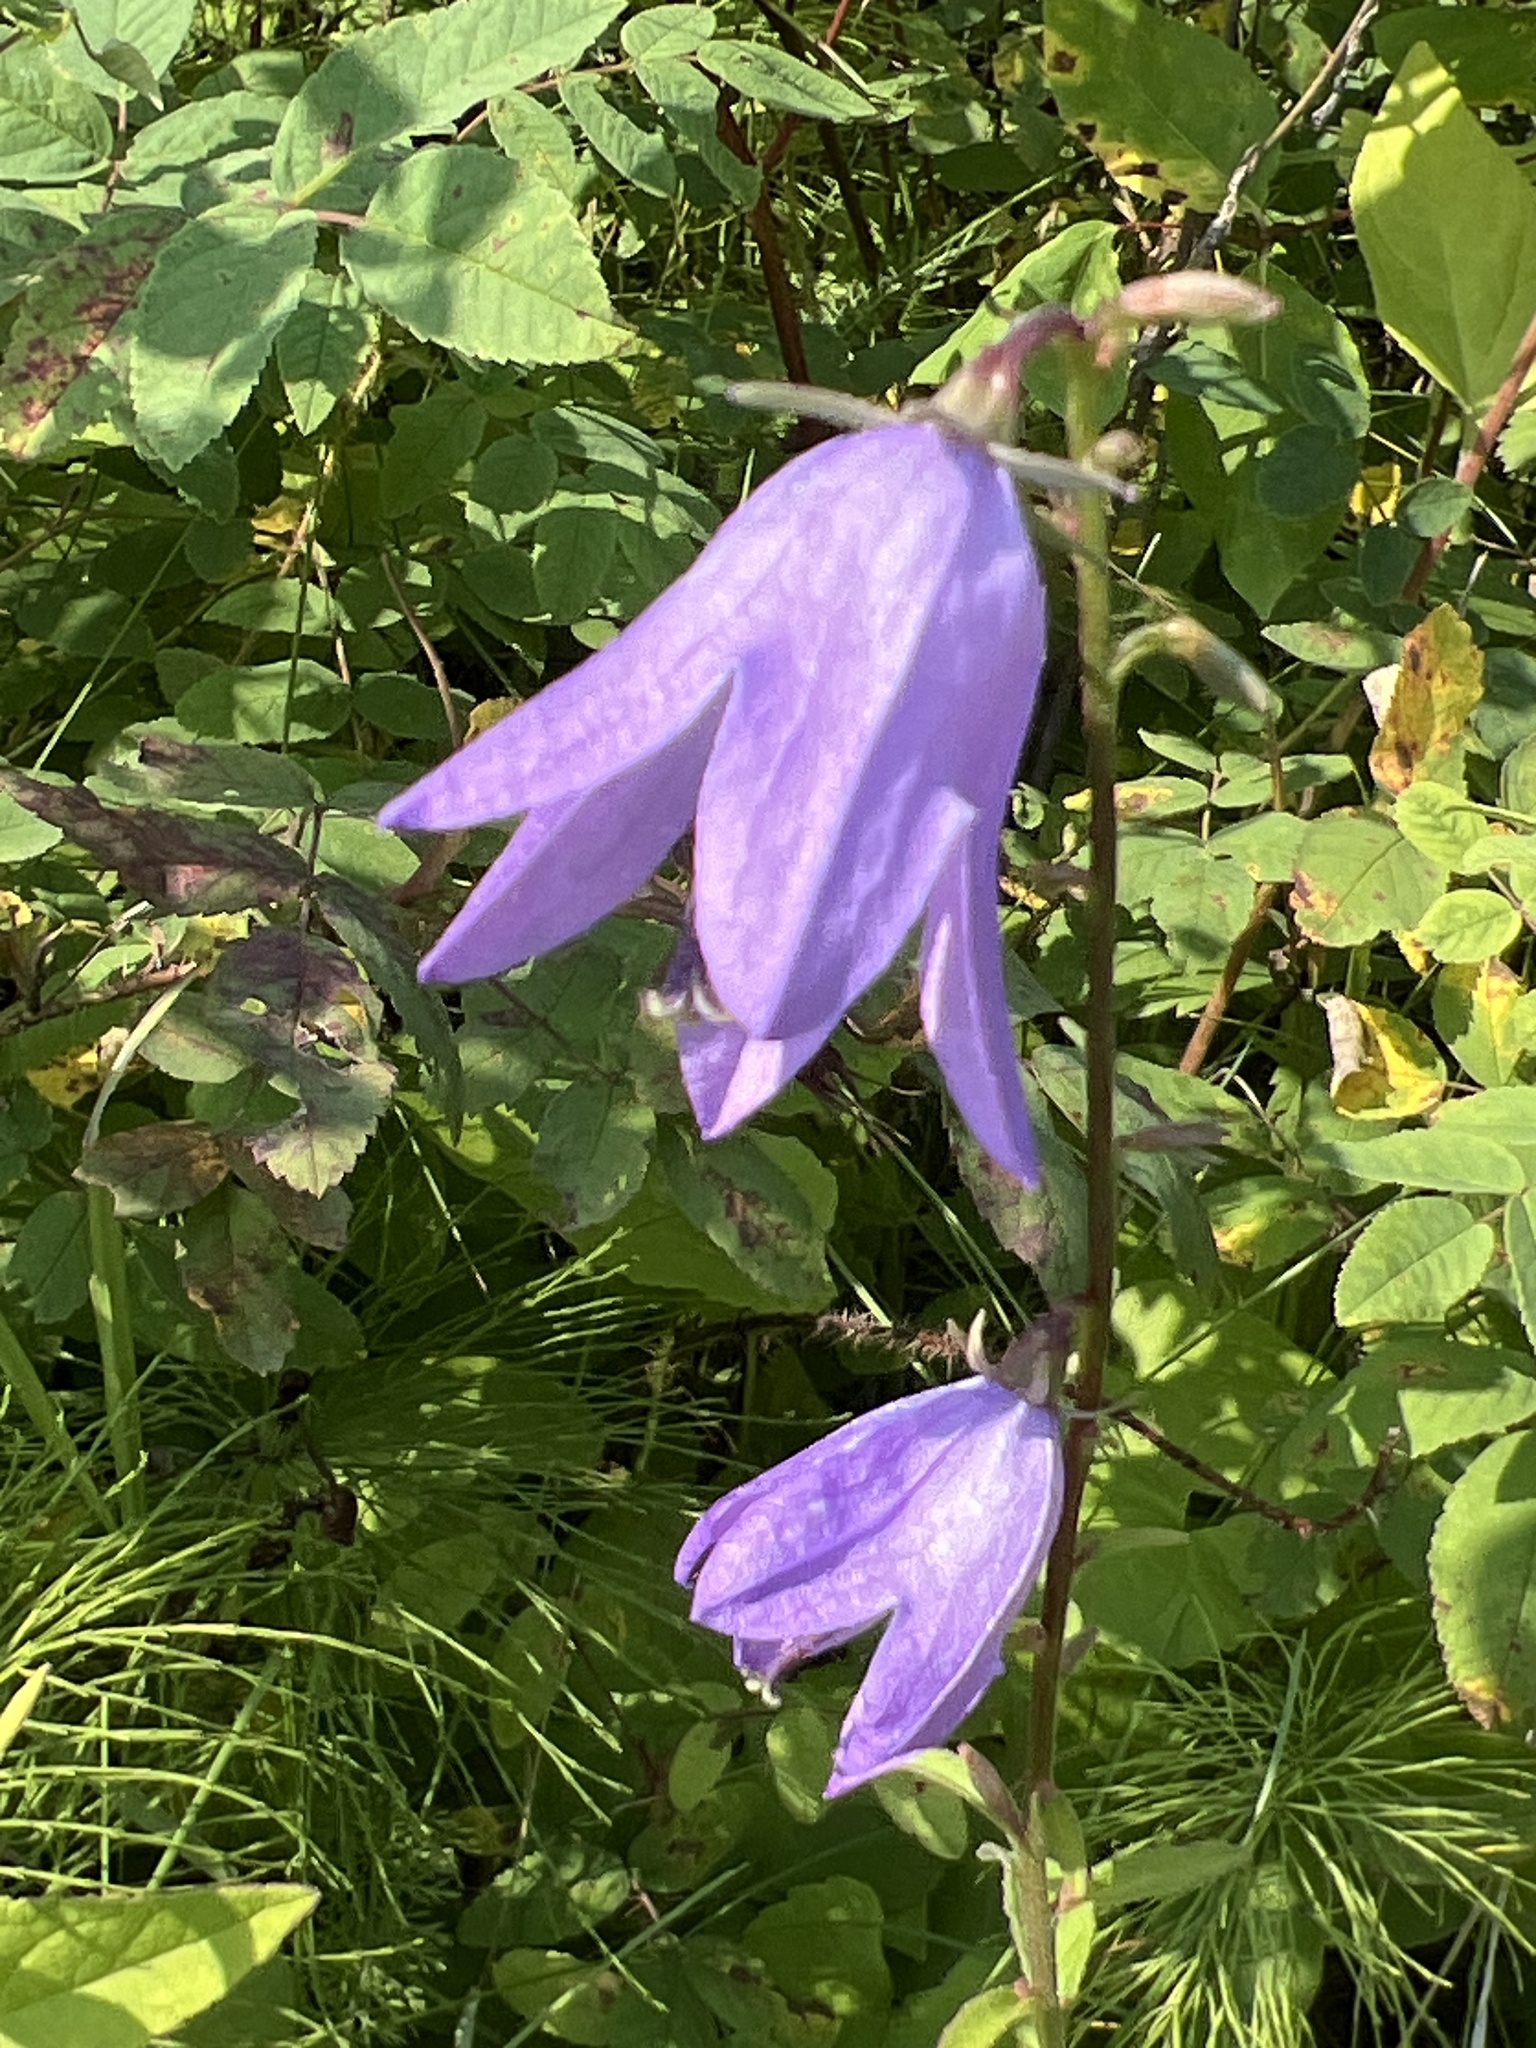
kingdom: Plantae
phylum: Tracheophyta
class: Magnoliopsida
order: Asterales
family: Campanulaceae
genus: Campanula
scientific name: Campanula rapunculoides
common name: Creeping bellflower
